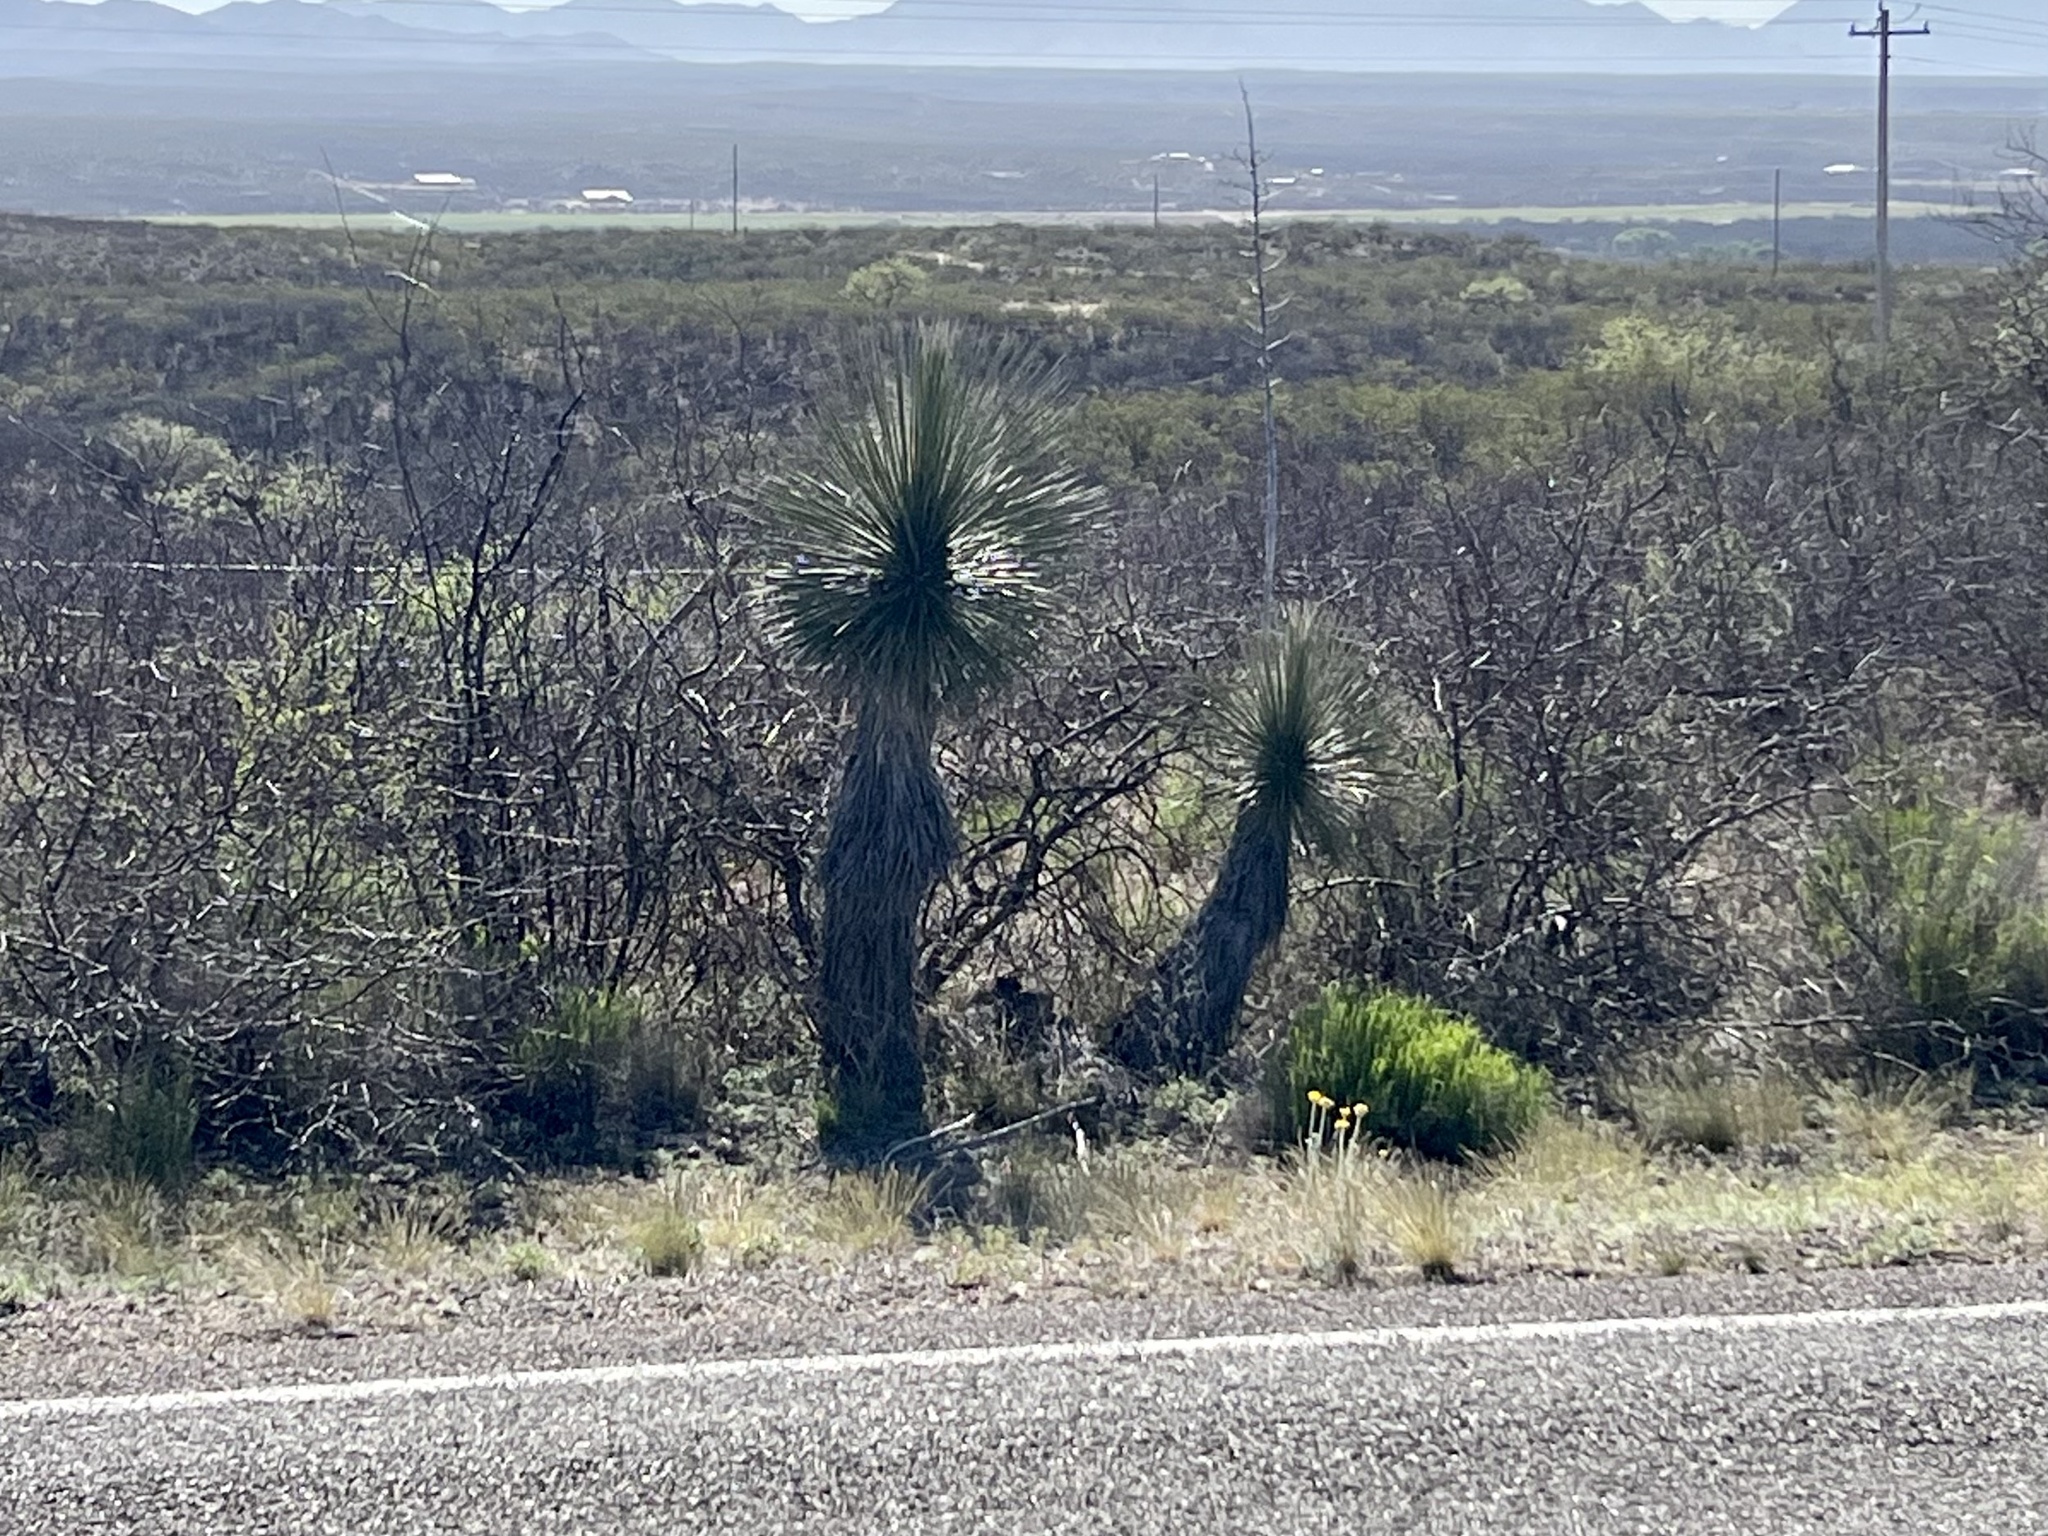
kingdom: Plantae
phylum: Tracheophyta
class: Liliopsida
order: Asparagales
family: Asparagaceae
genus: Yucca
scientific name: Yucca elata
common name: Palmella
